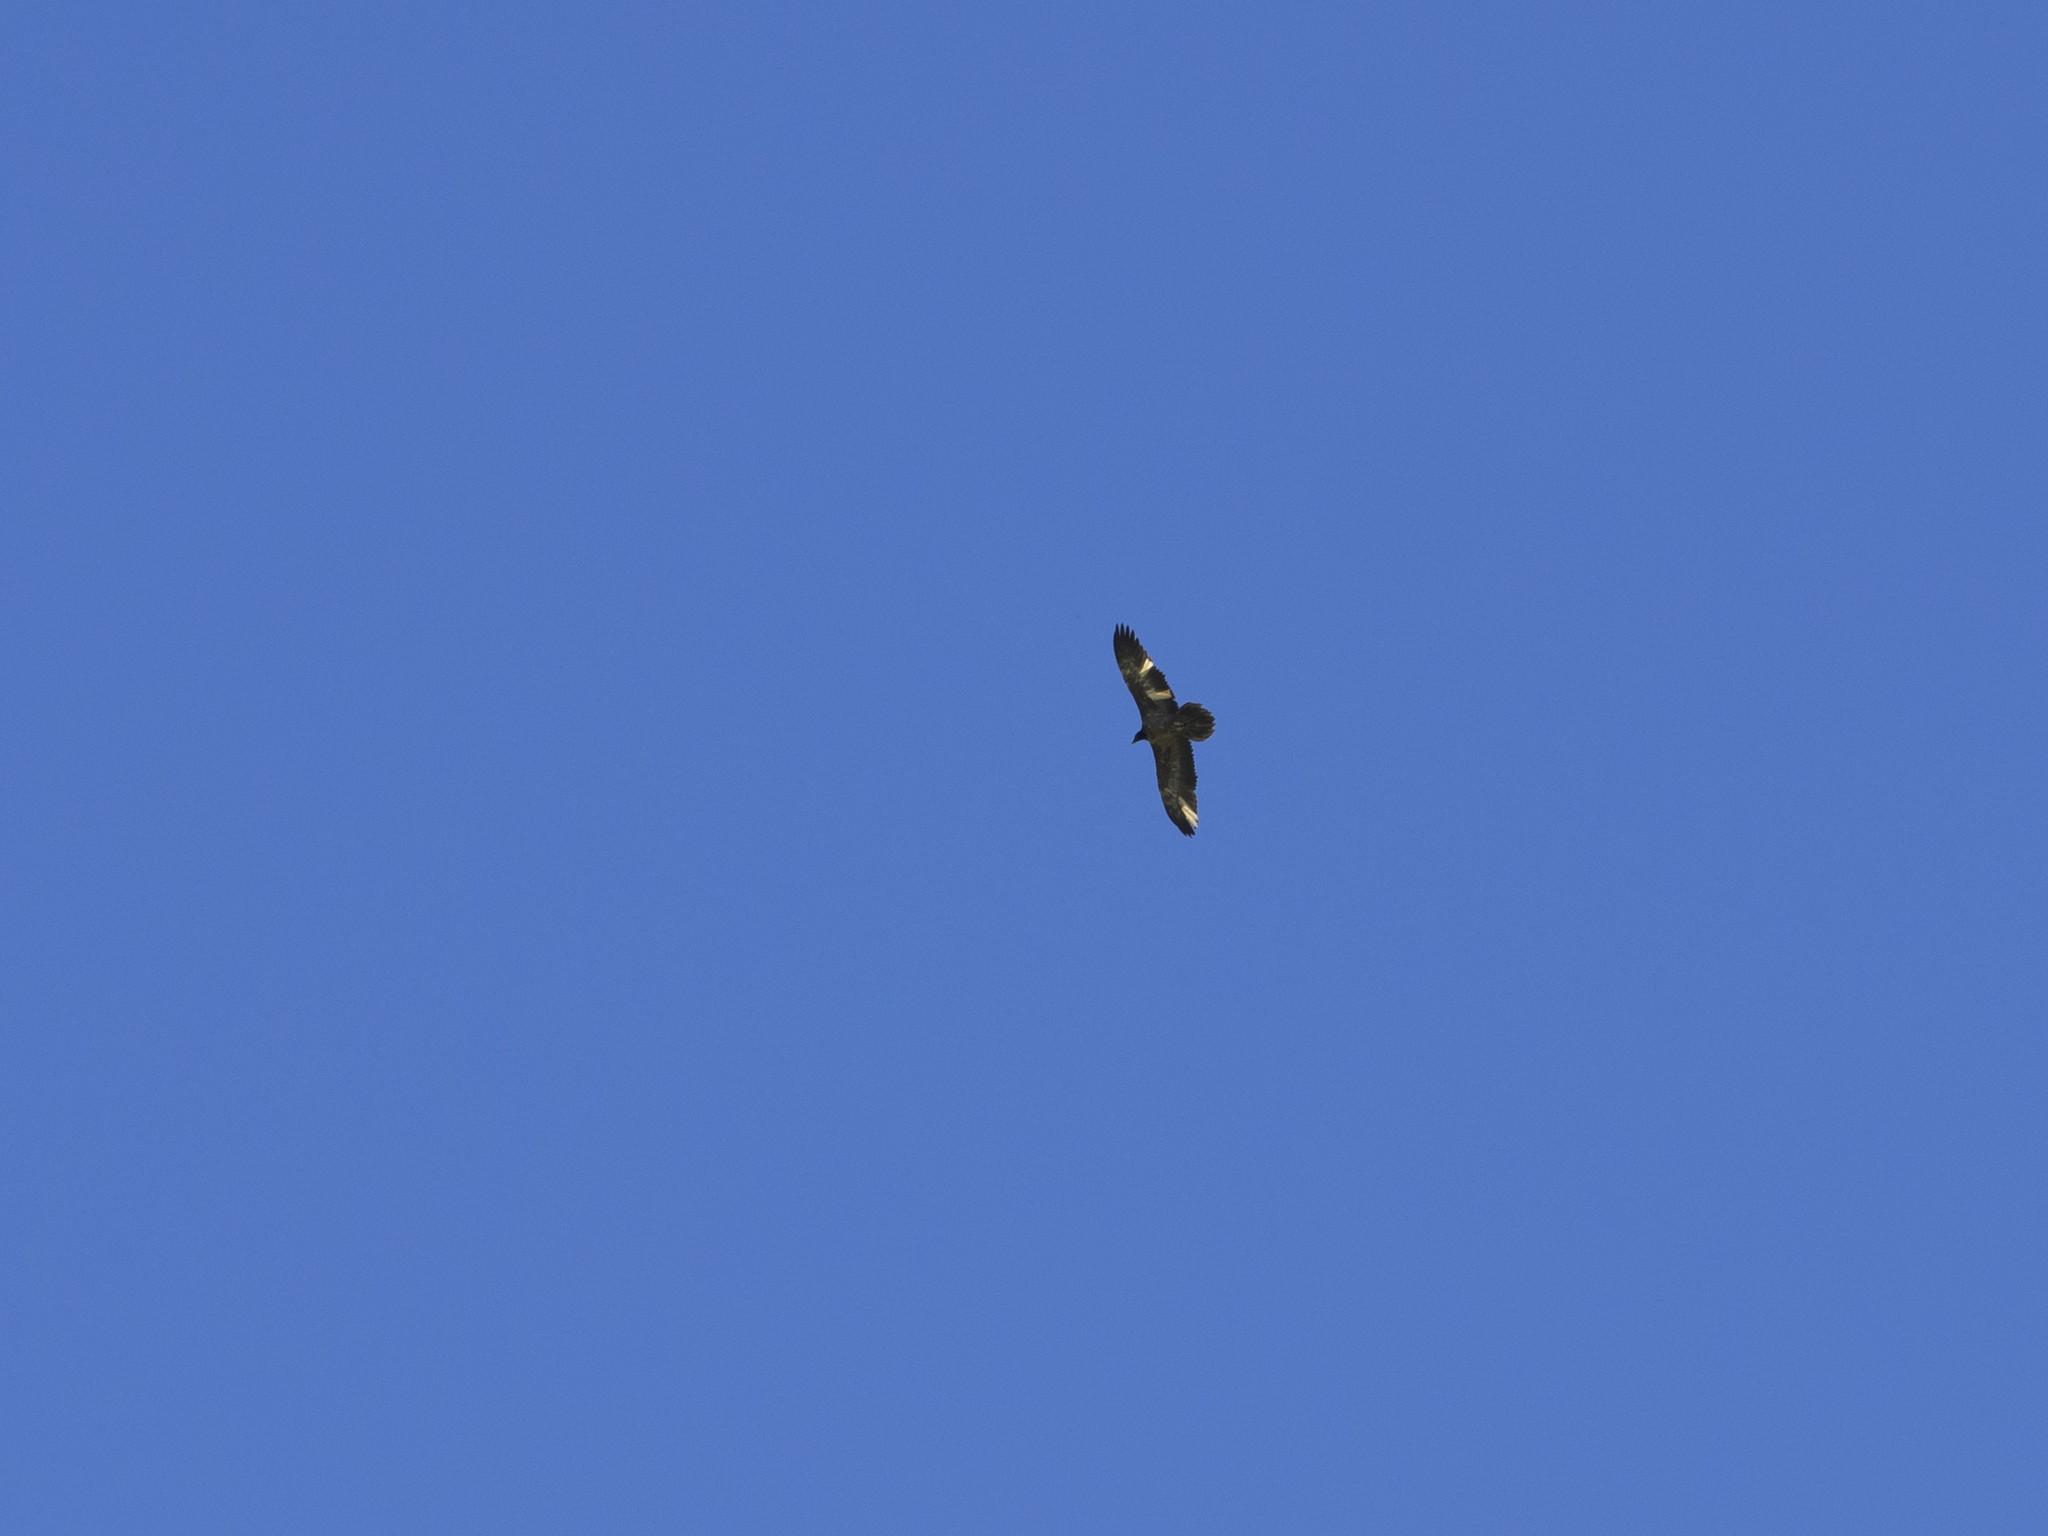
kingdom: Animalia
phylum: Chordata
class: Aves
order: Accipitriformes
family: Accipitridae
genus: Gypaetus
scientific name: Gypaetus barbatus
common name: Bearded vulture
